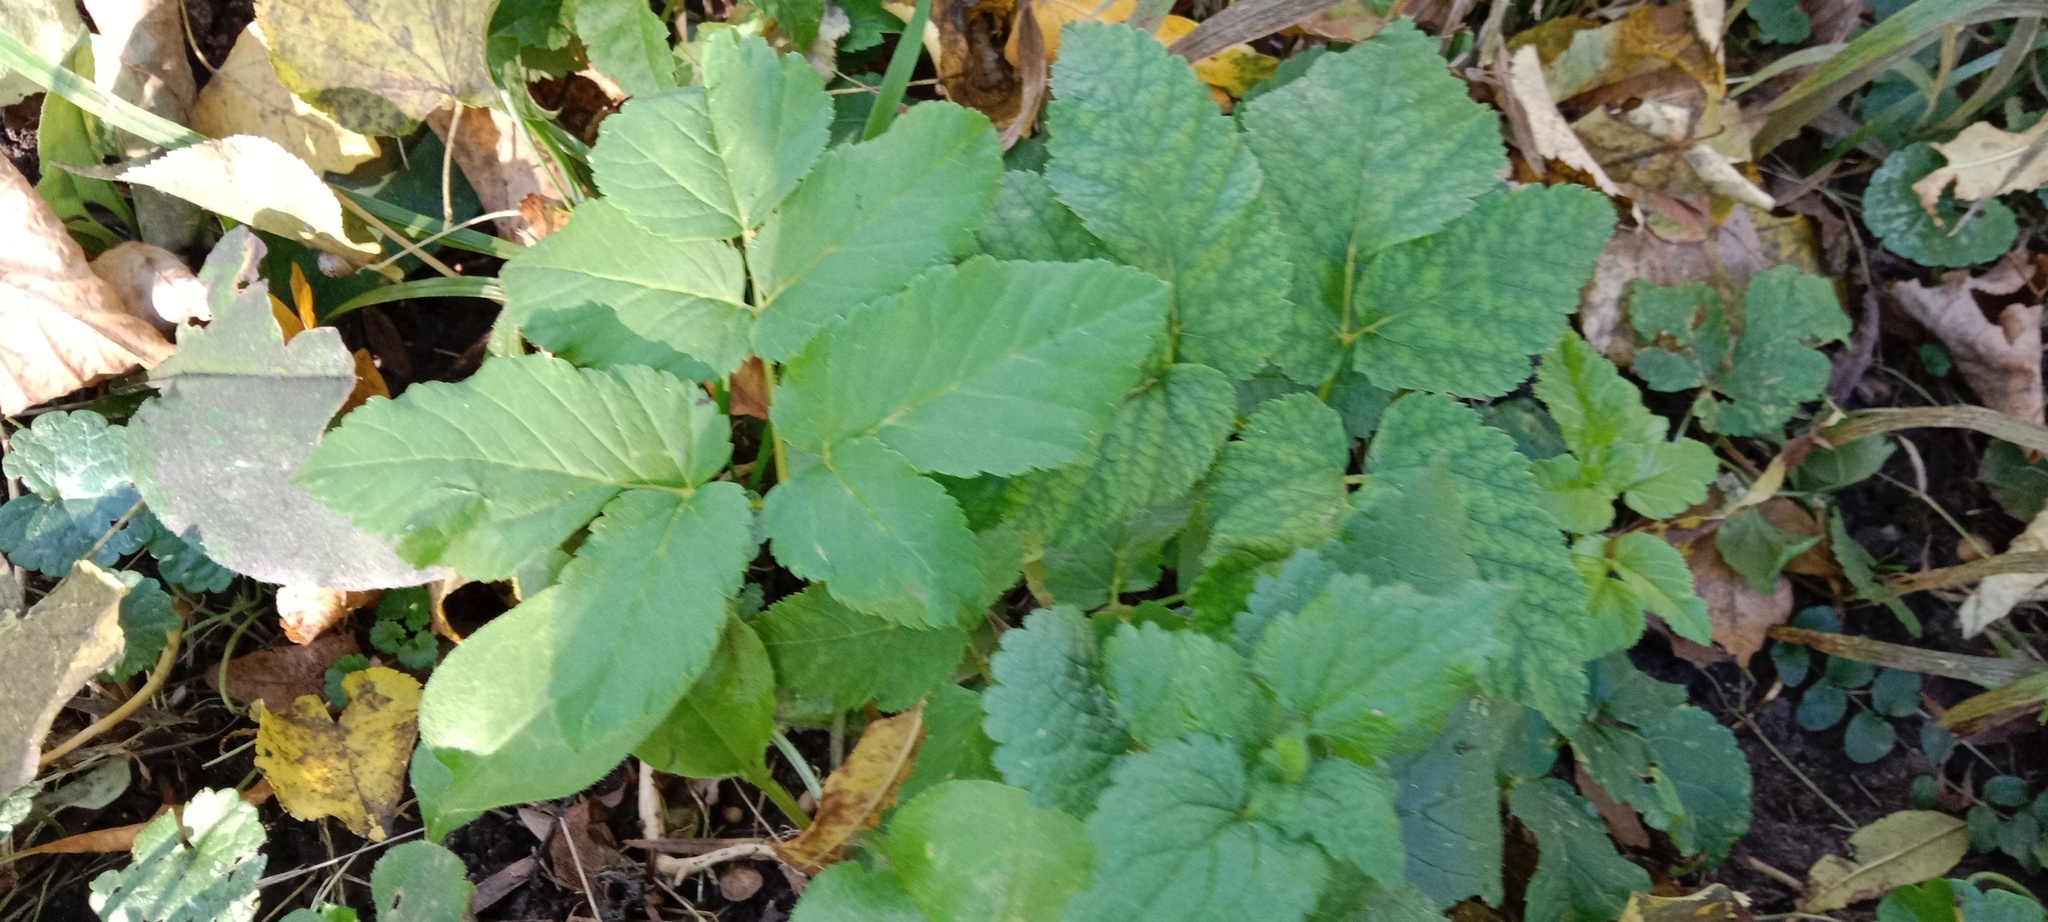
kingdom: Plantae
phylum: Tracheophyta
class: Magnoliopsida
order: Apiales
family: Apiaceae
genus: Aegopodium
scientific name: Aegopodium podagraria
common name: Ground-elder
